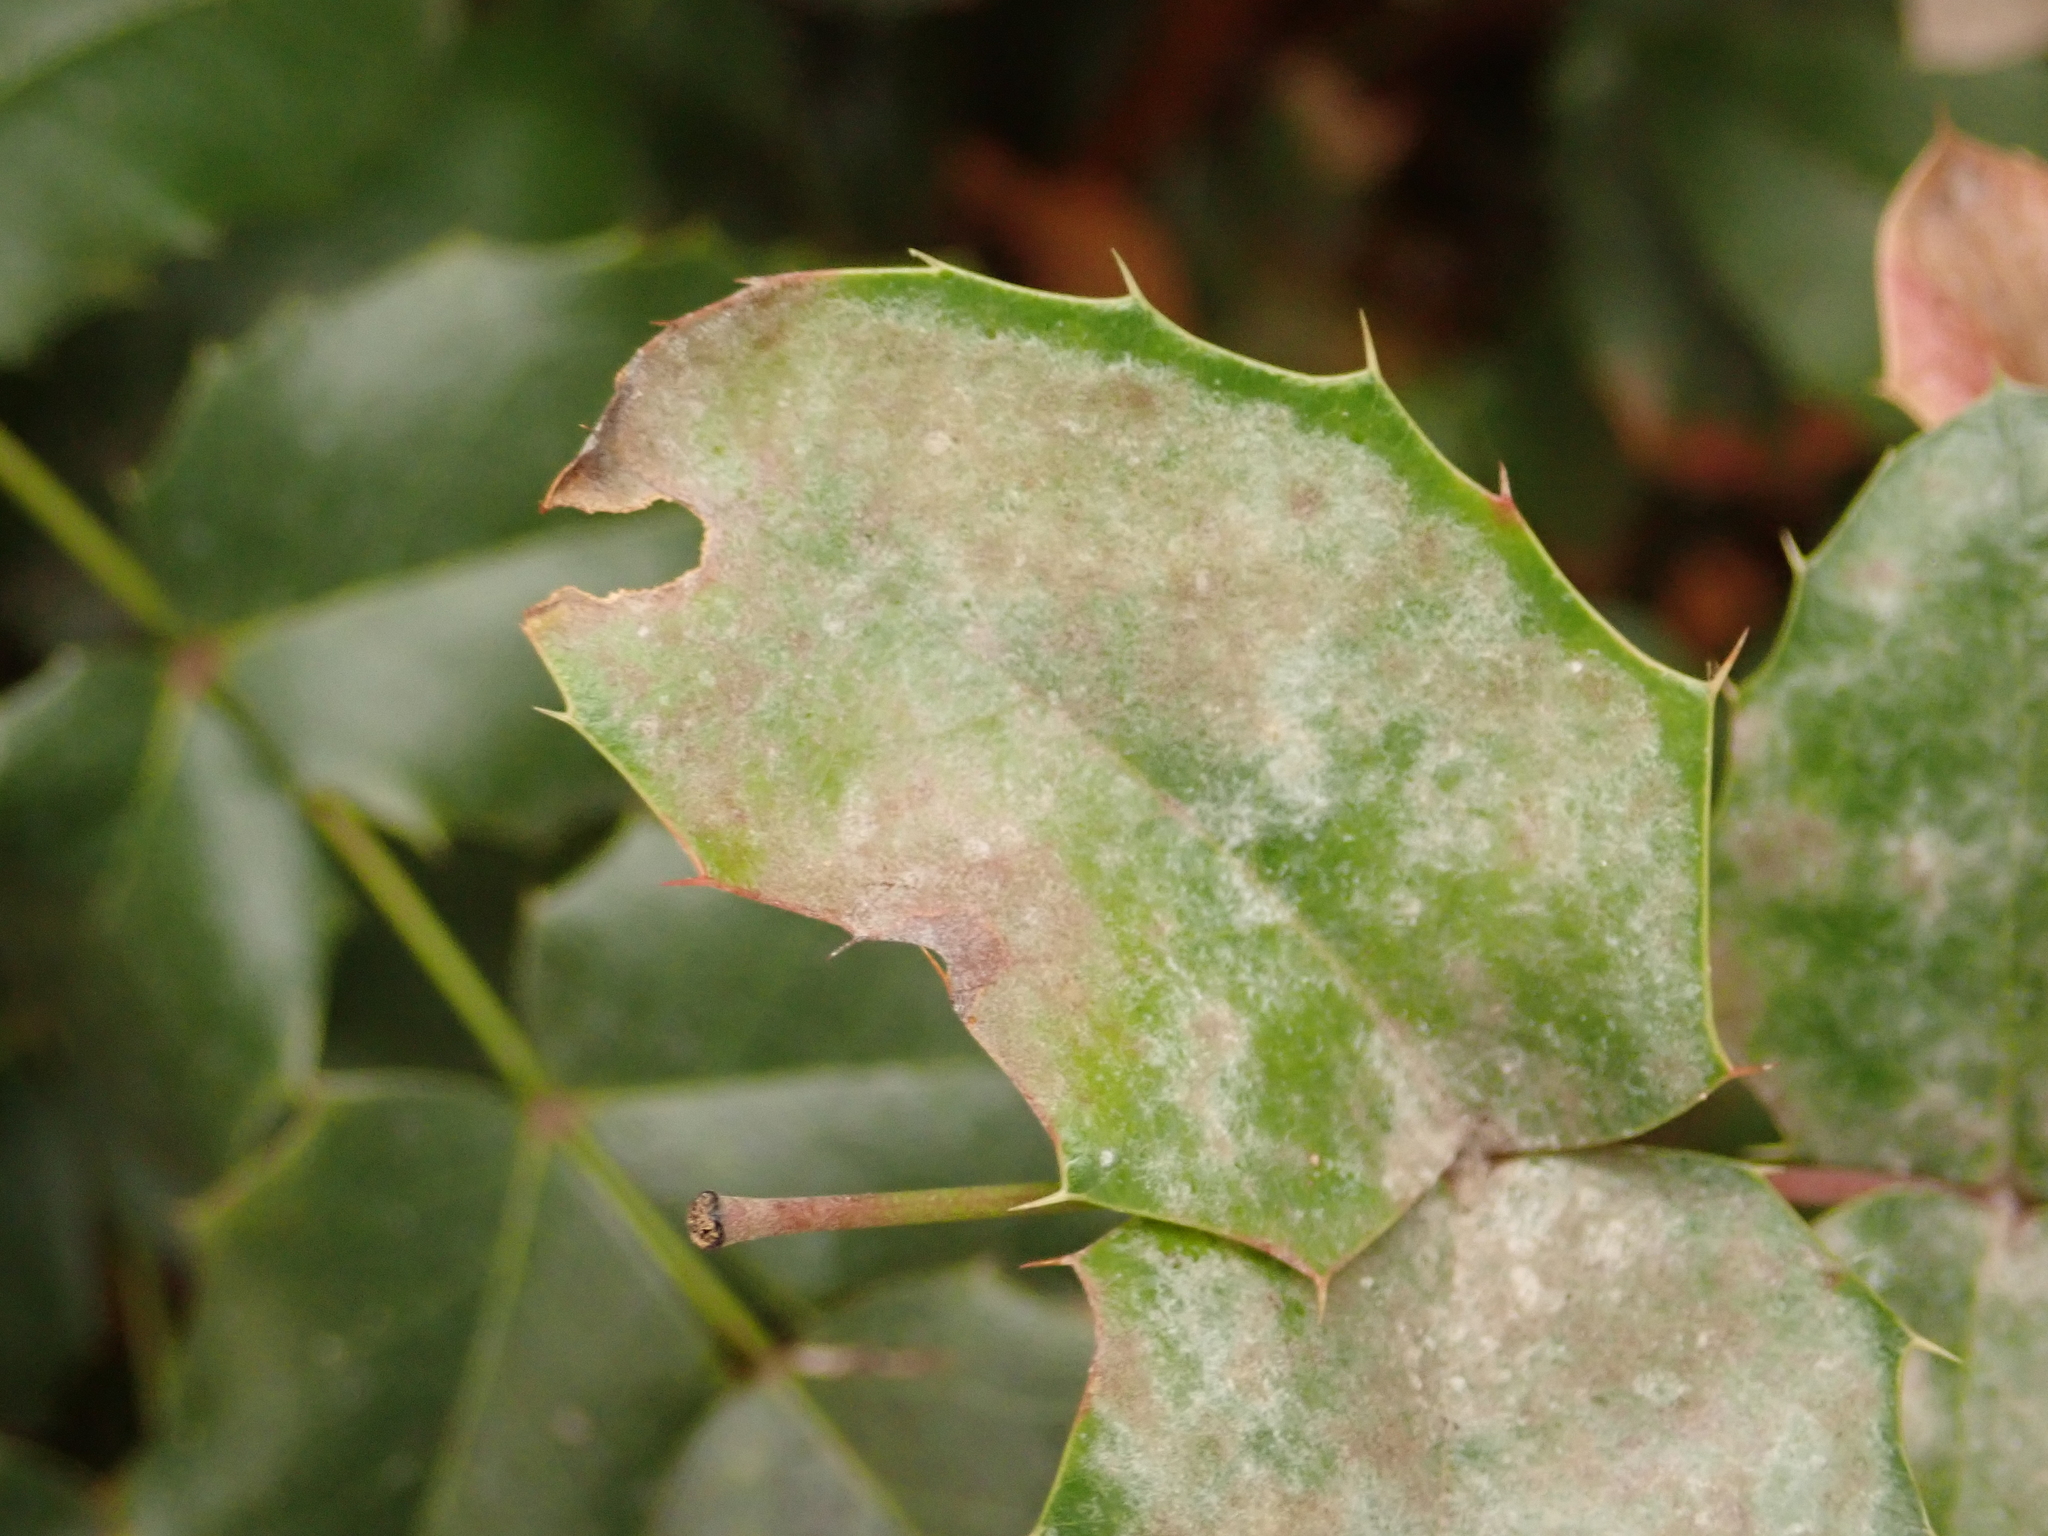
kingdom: Fungi
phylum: Ascomycota
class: Leotiomycetes
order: Helotiales
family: Erysiphaceae
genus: Erysiphe
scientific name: Erysiphe berberidis
